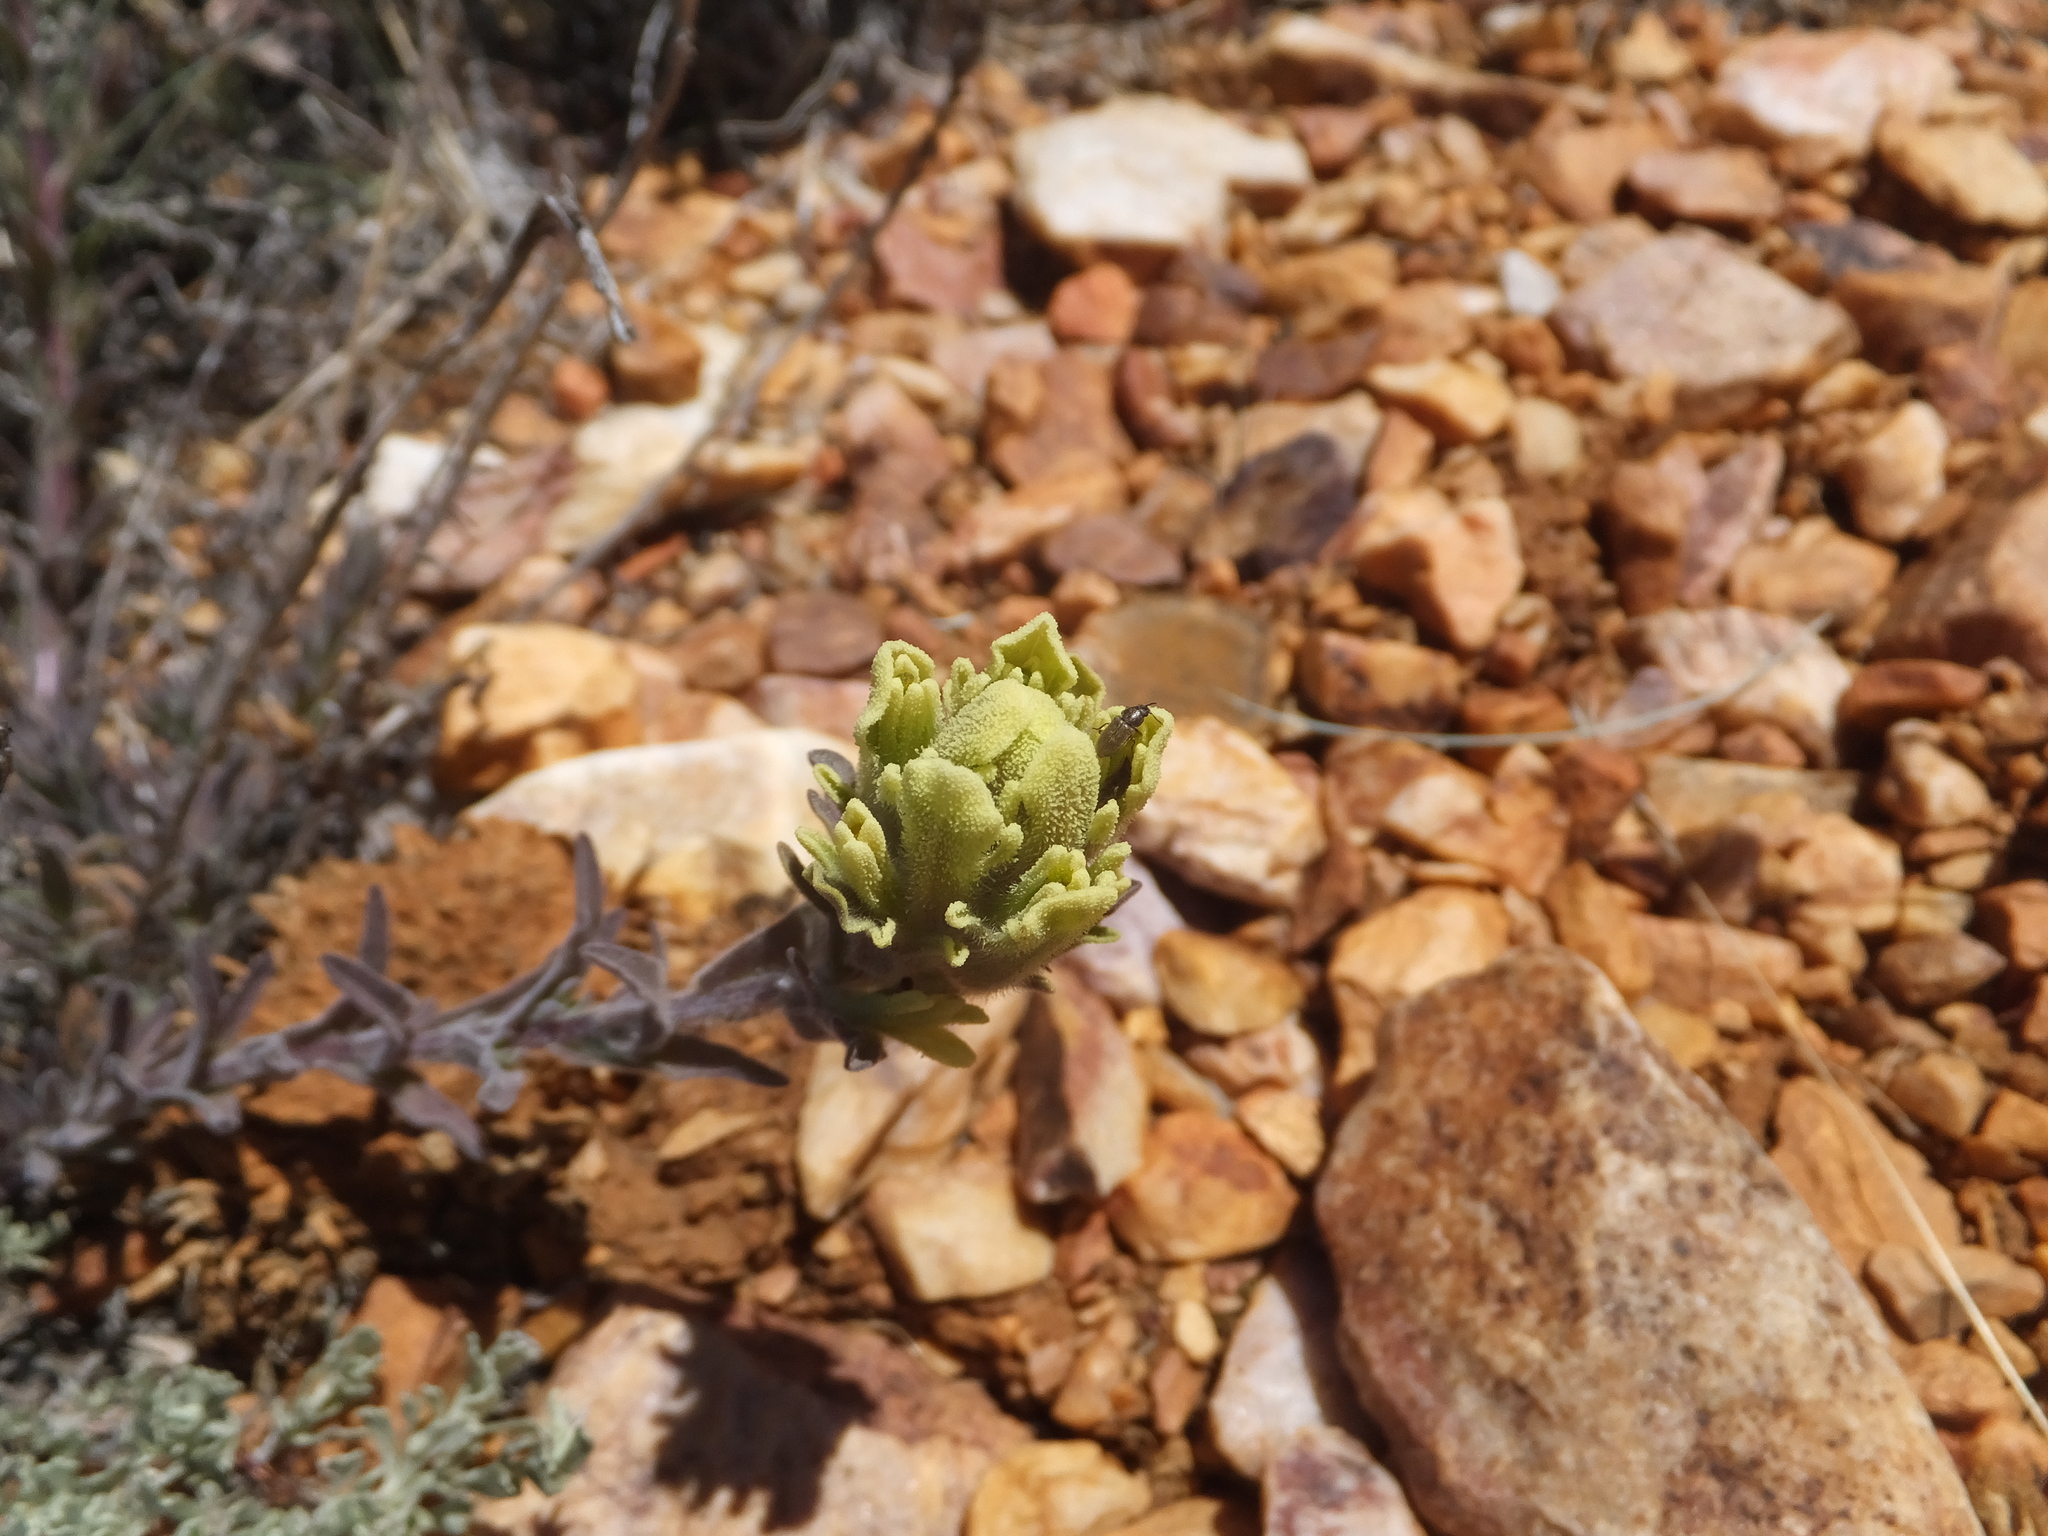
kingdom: Plantae
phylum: Tracheophyta
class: Magnoliopsida
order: Lamiales
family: Orobanchaceae
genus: Castilleja
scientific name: Castilleja cinerea
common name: Ash-gray indian paintbrush
